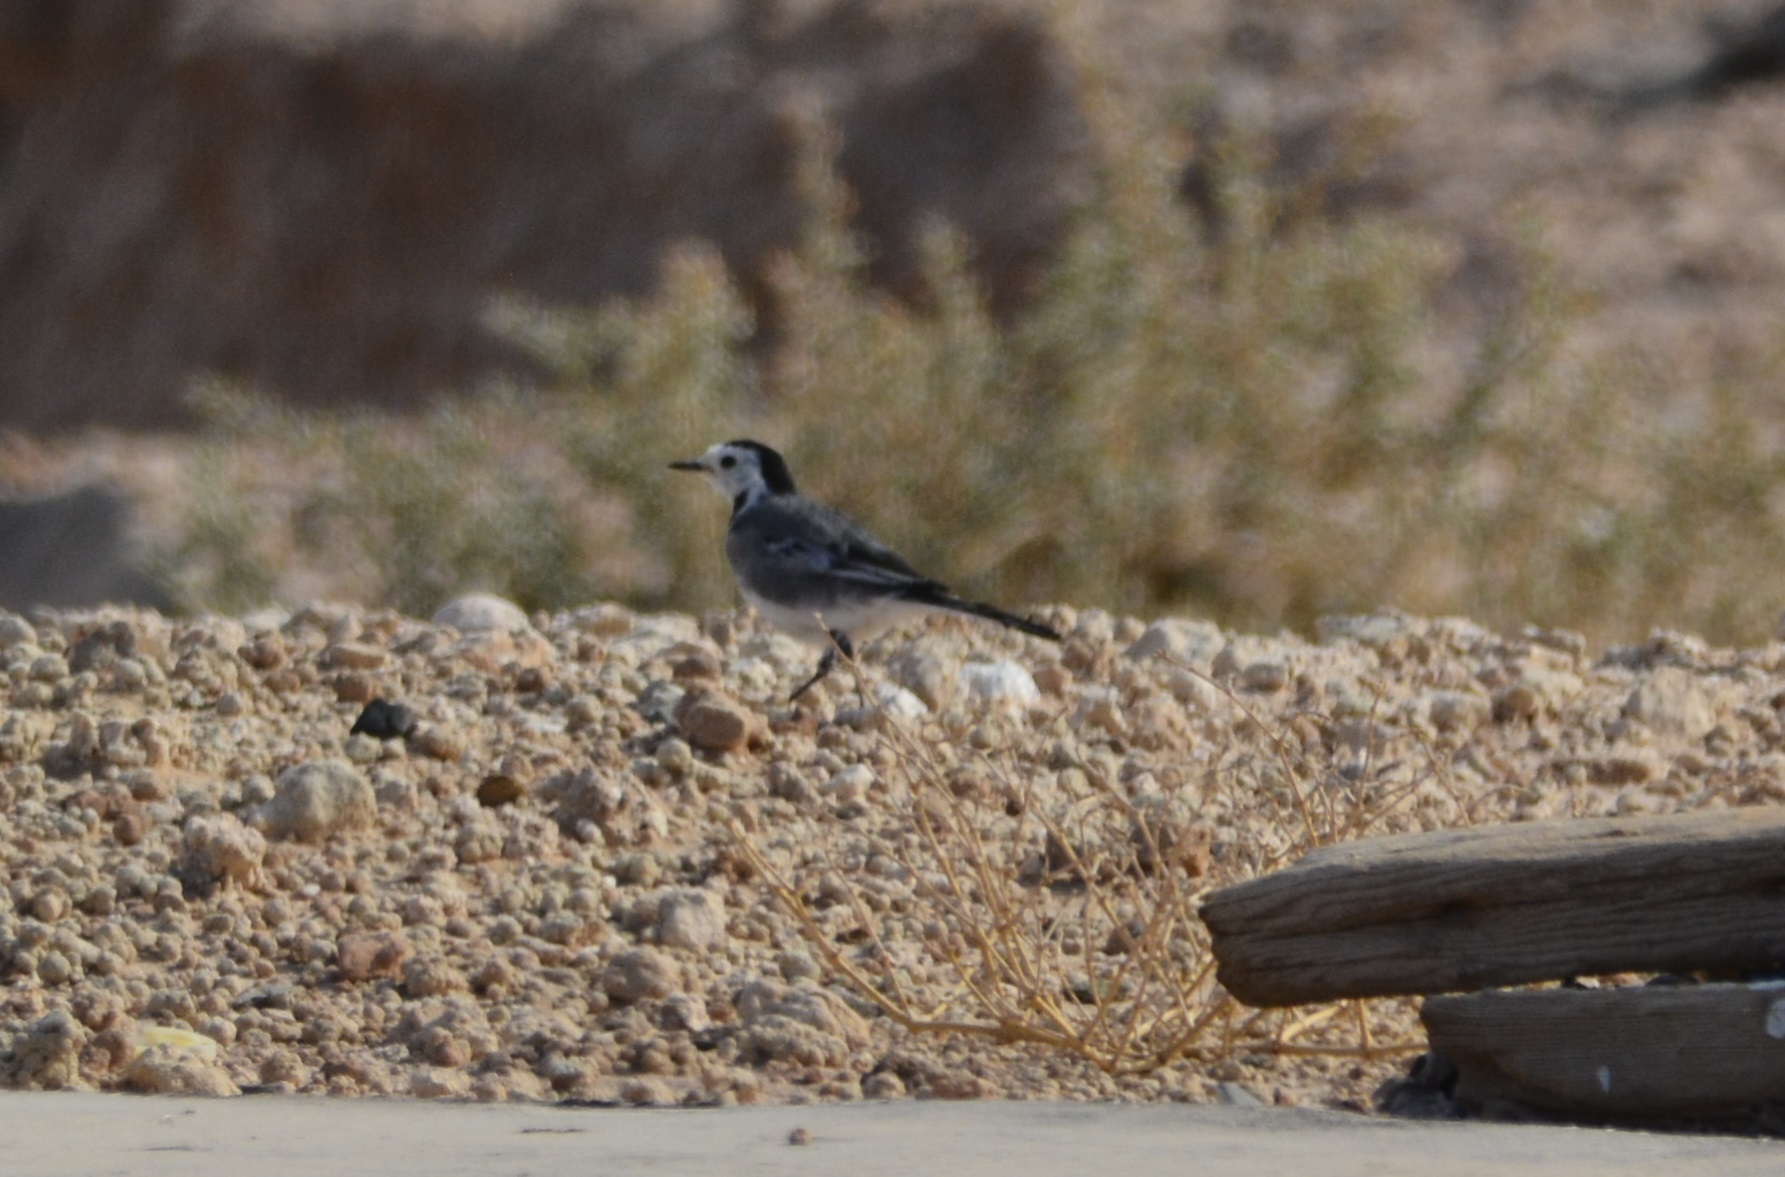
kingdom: Animalia
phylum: Chordata
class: Aves
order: Passeriformes
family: Motacillidae
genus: Motacilla
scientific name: Motacilla alba
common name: White wagtail
